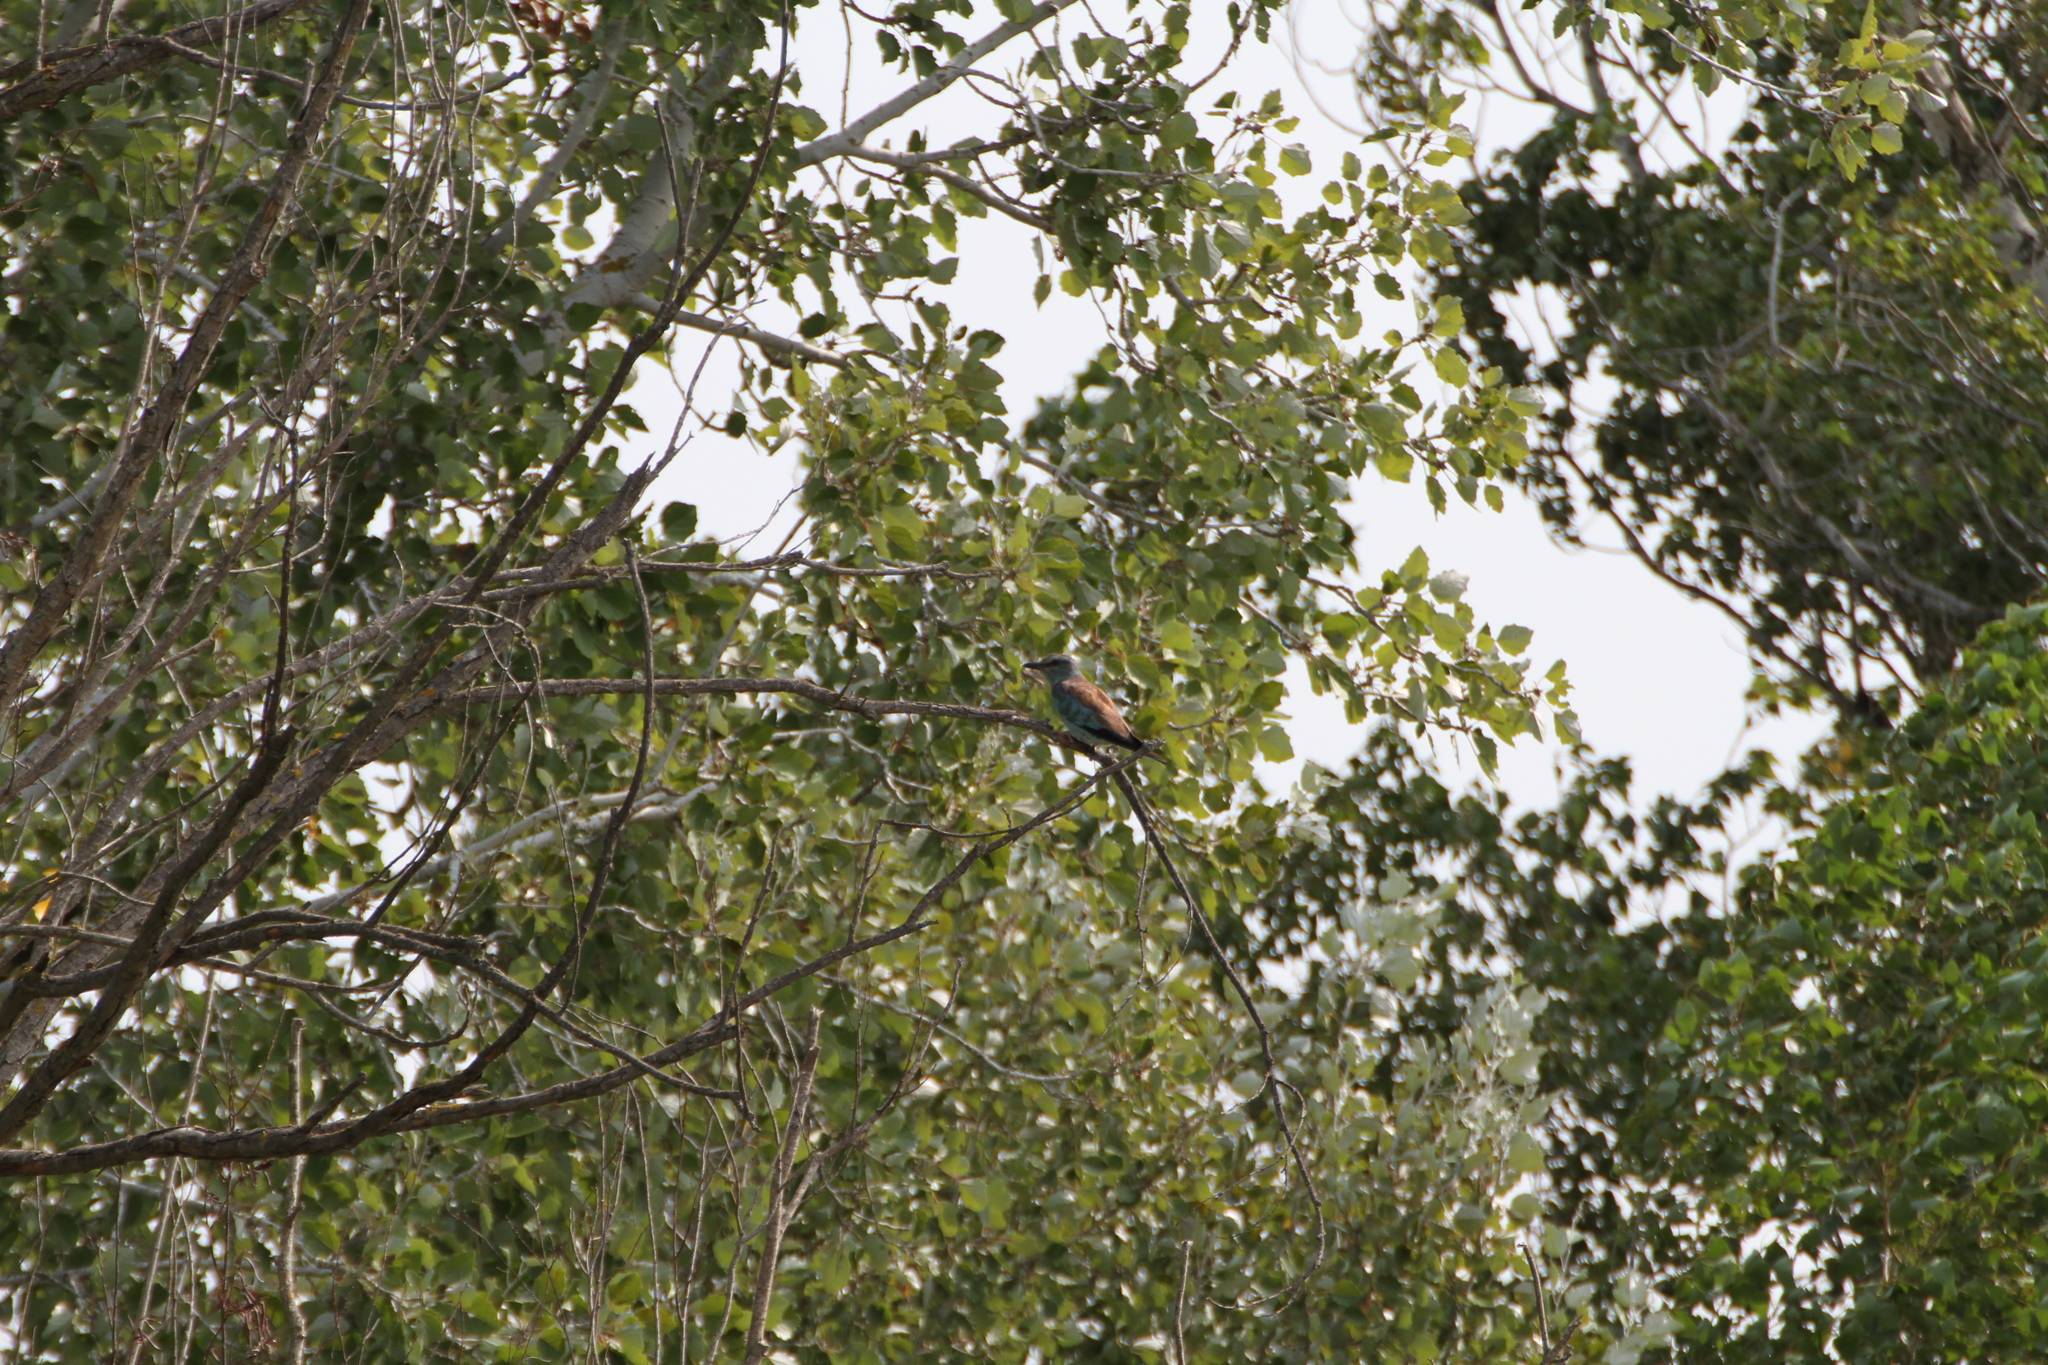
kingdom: Animalia
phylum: Chordata
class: Aves
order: Coraciiformes
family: Coraciidae
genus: Coracias
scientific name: Coracias garrulus
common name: European roller
